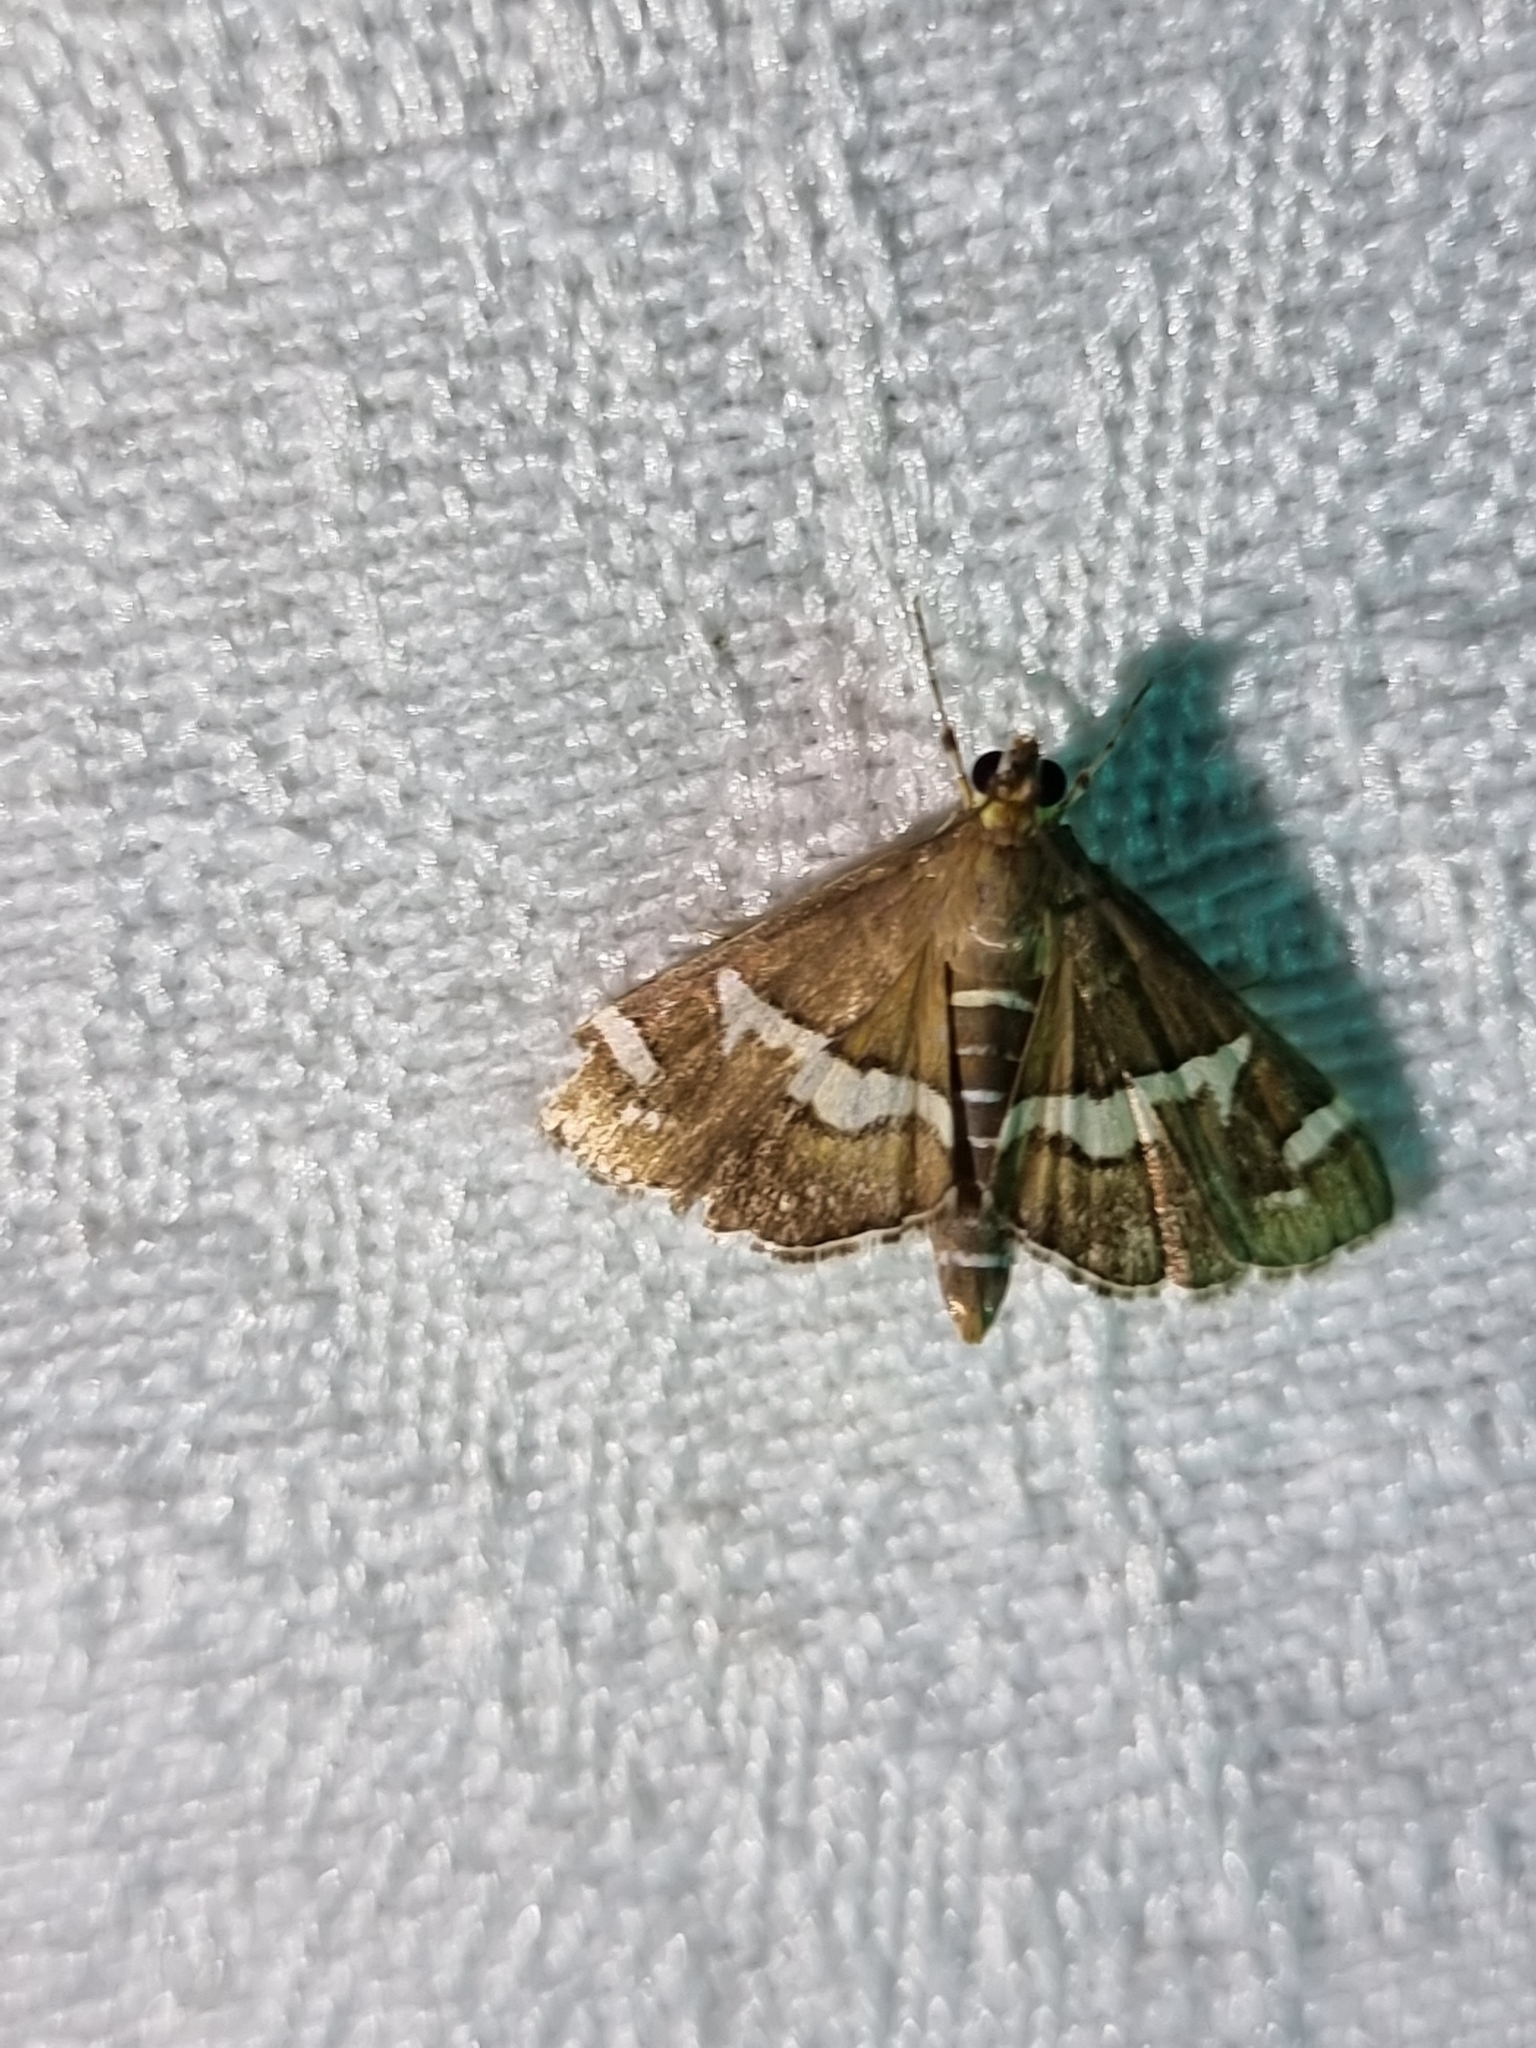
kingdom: Animalia
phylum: Arthropoda
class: Insecta
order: Lepidoptera
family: Crambidae
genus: Spoladea
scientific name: Spoladea recurvalis
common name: Beet webworm moth
